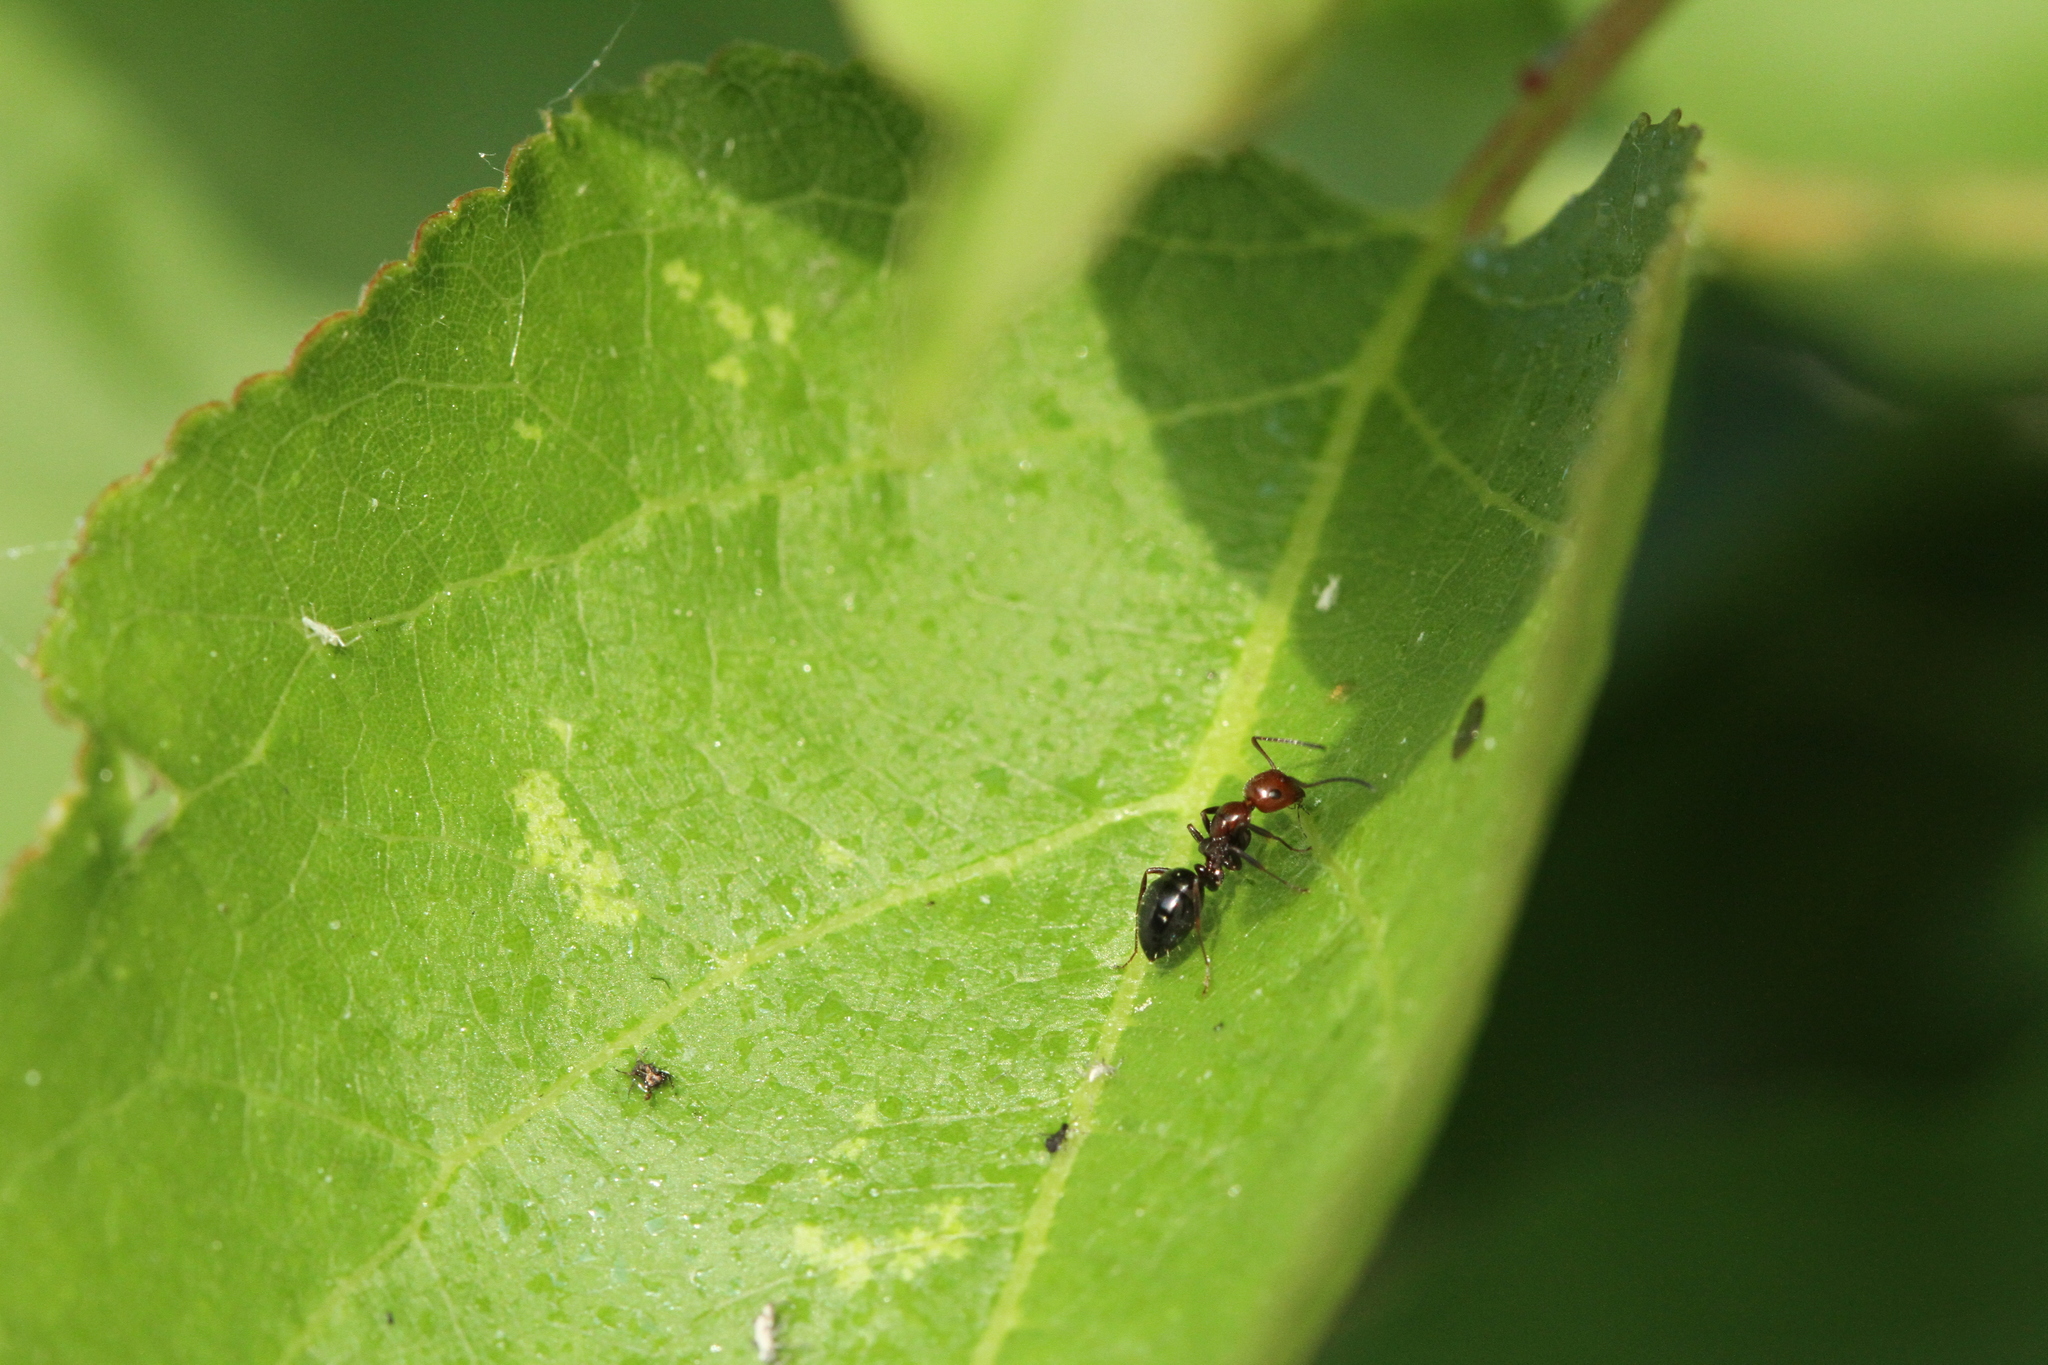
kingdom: Animalia
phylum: Arthropoda
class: Insecta
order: Hymenoptera
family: Formicidae
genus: Camponotus
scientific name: Camponotus lateralis
